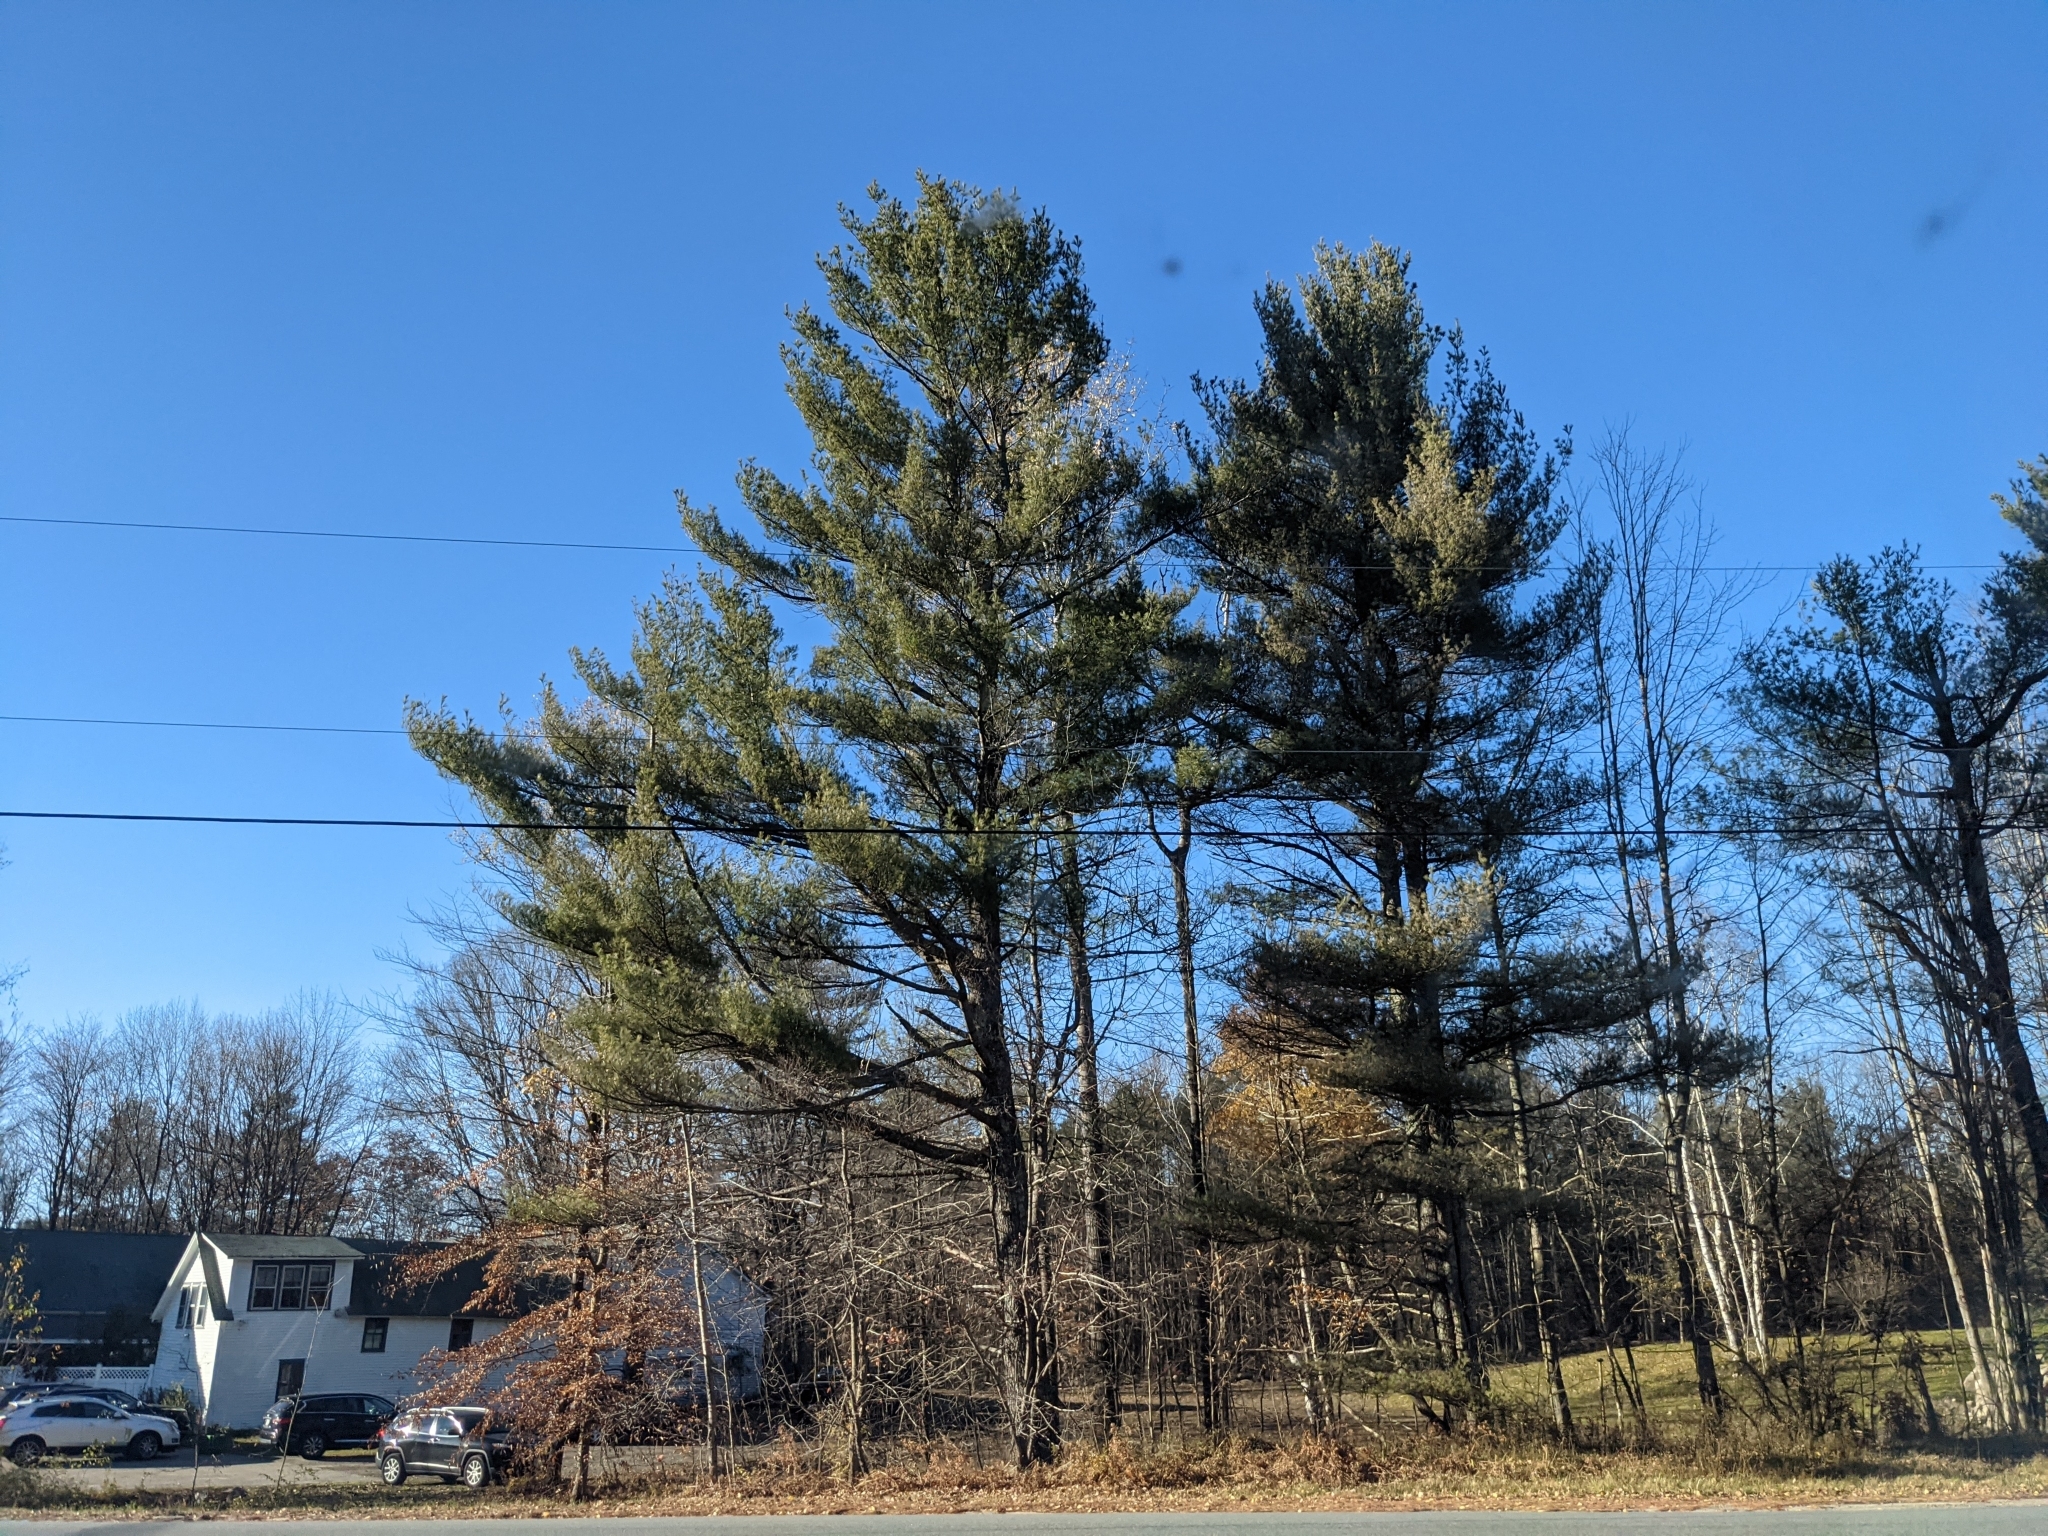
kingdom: Plantae
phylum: Tracheophyta
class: Pinopsida
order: Pinales
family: Pinaceae
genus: Pinus
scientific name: Pinus strobus
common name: Weymouth pine
